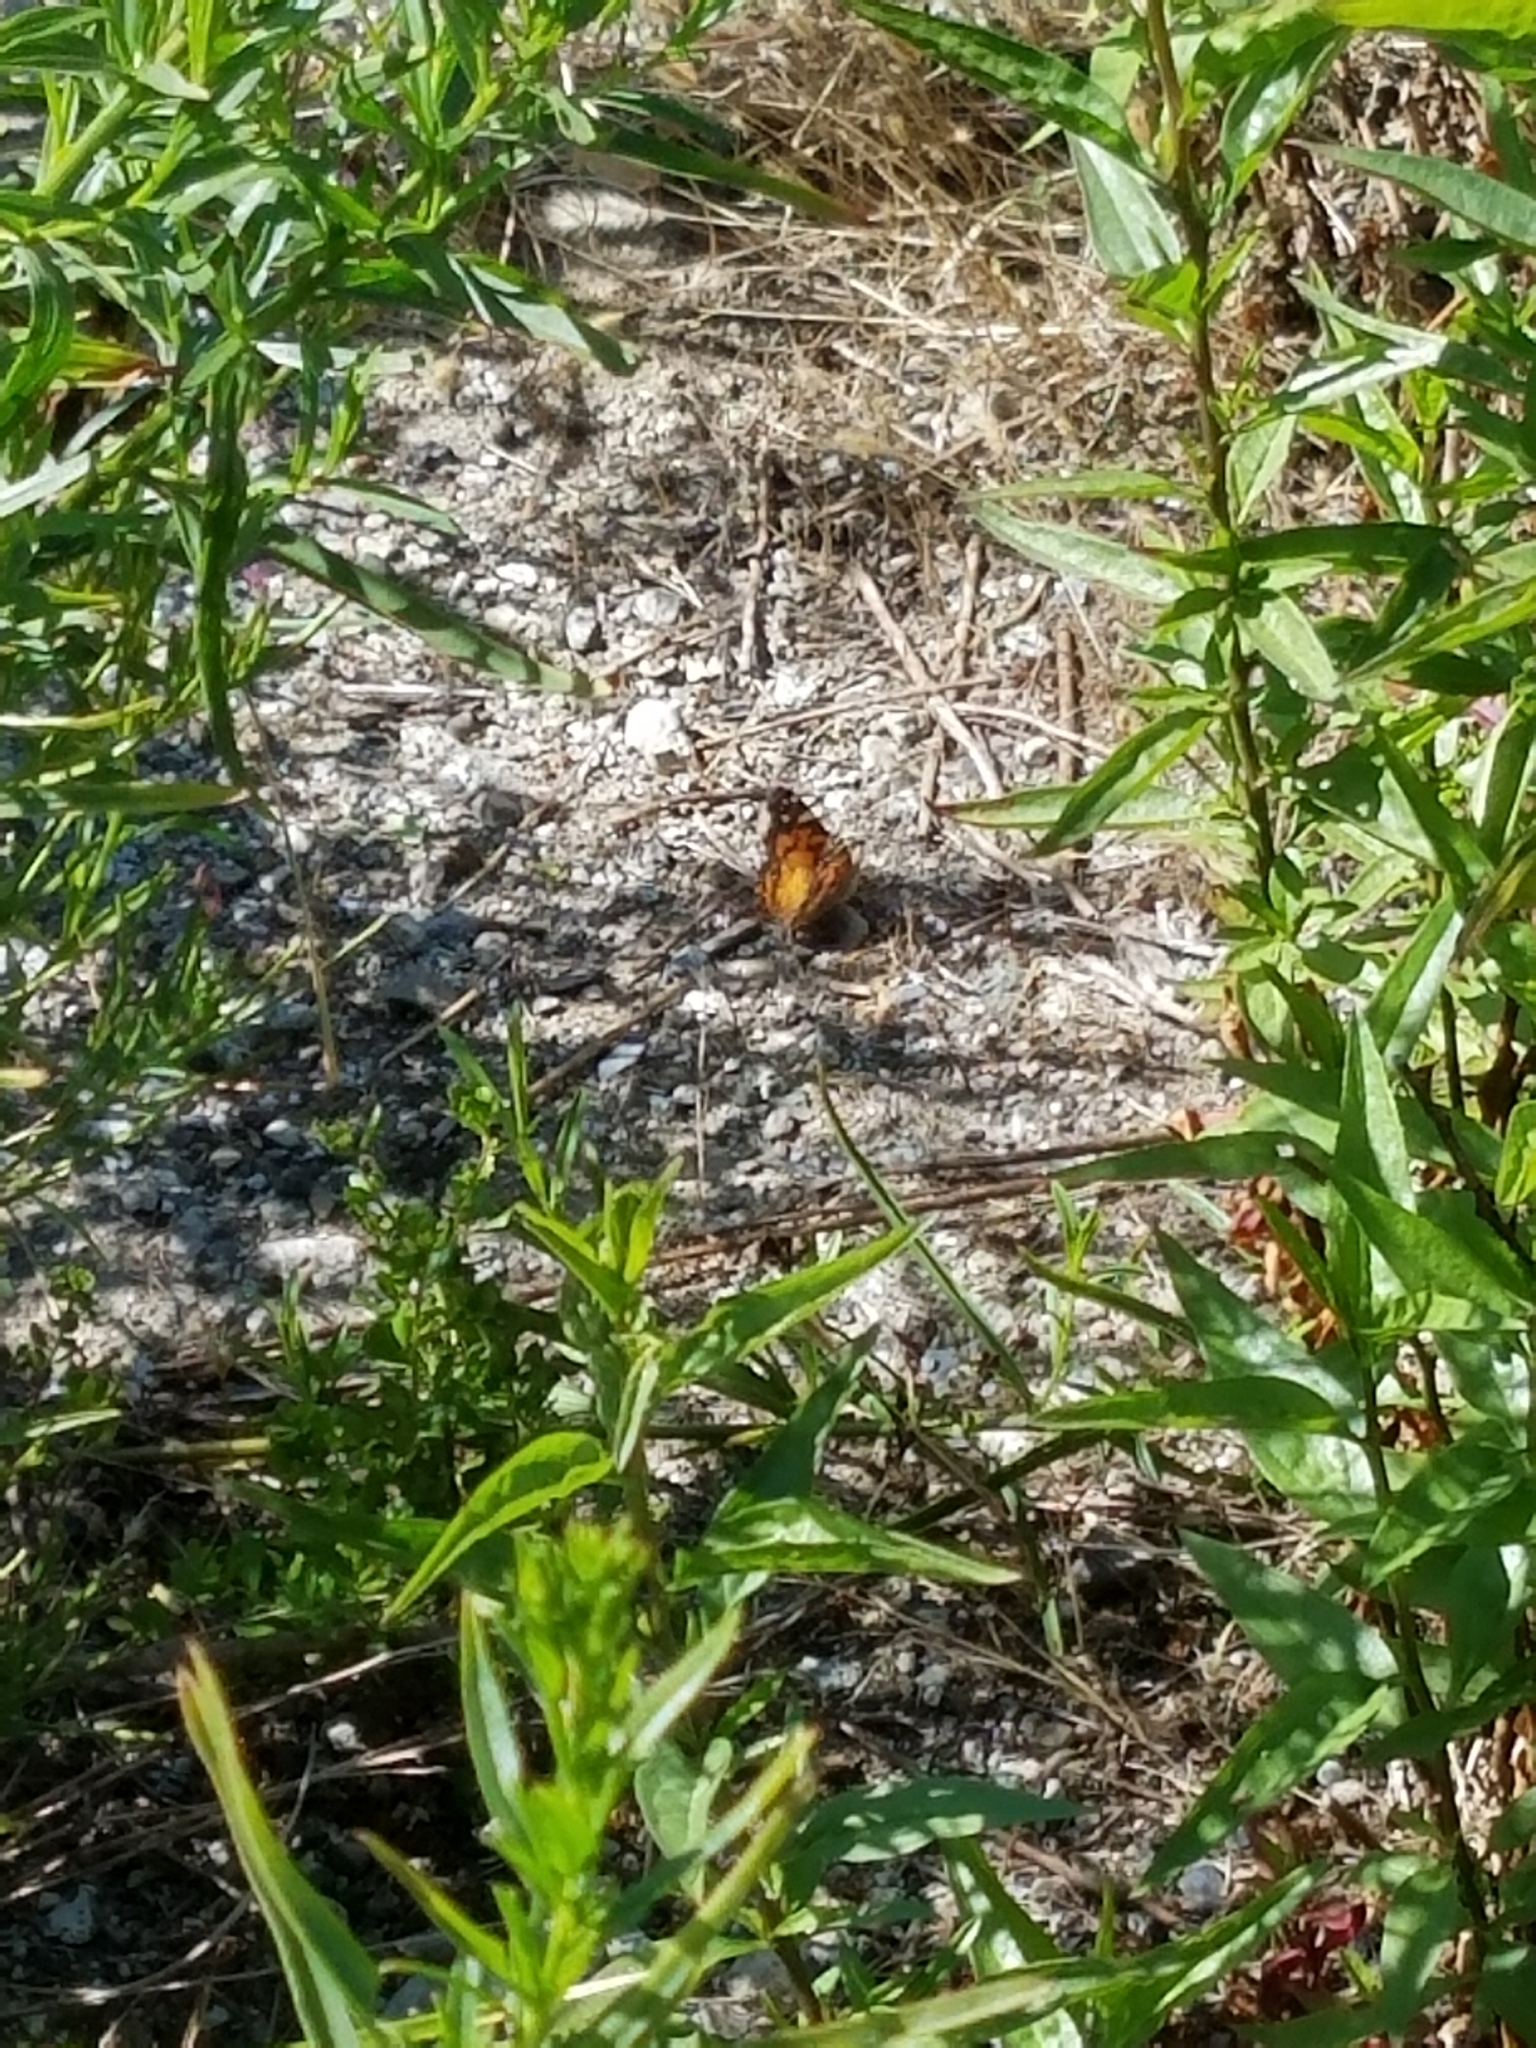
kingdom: Animalia
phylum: Arthropoda
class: Insecta
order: Lepidoptera
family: Nymphalidae
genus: Vanessa
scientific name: Vanessa virginiensis
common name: American lady
